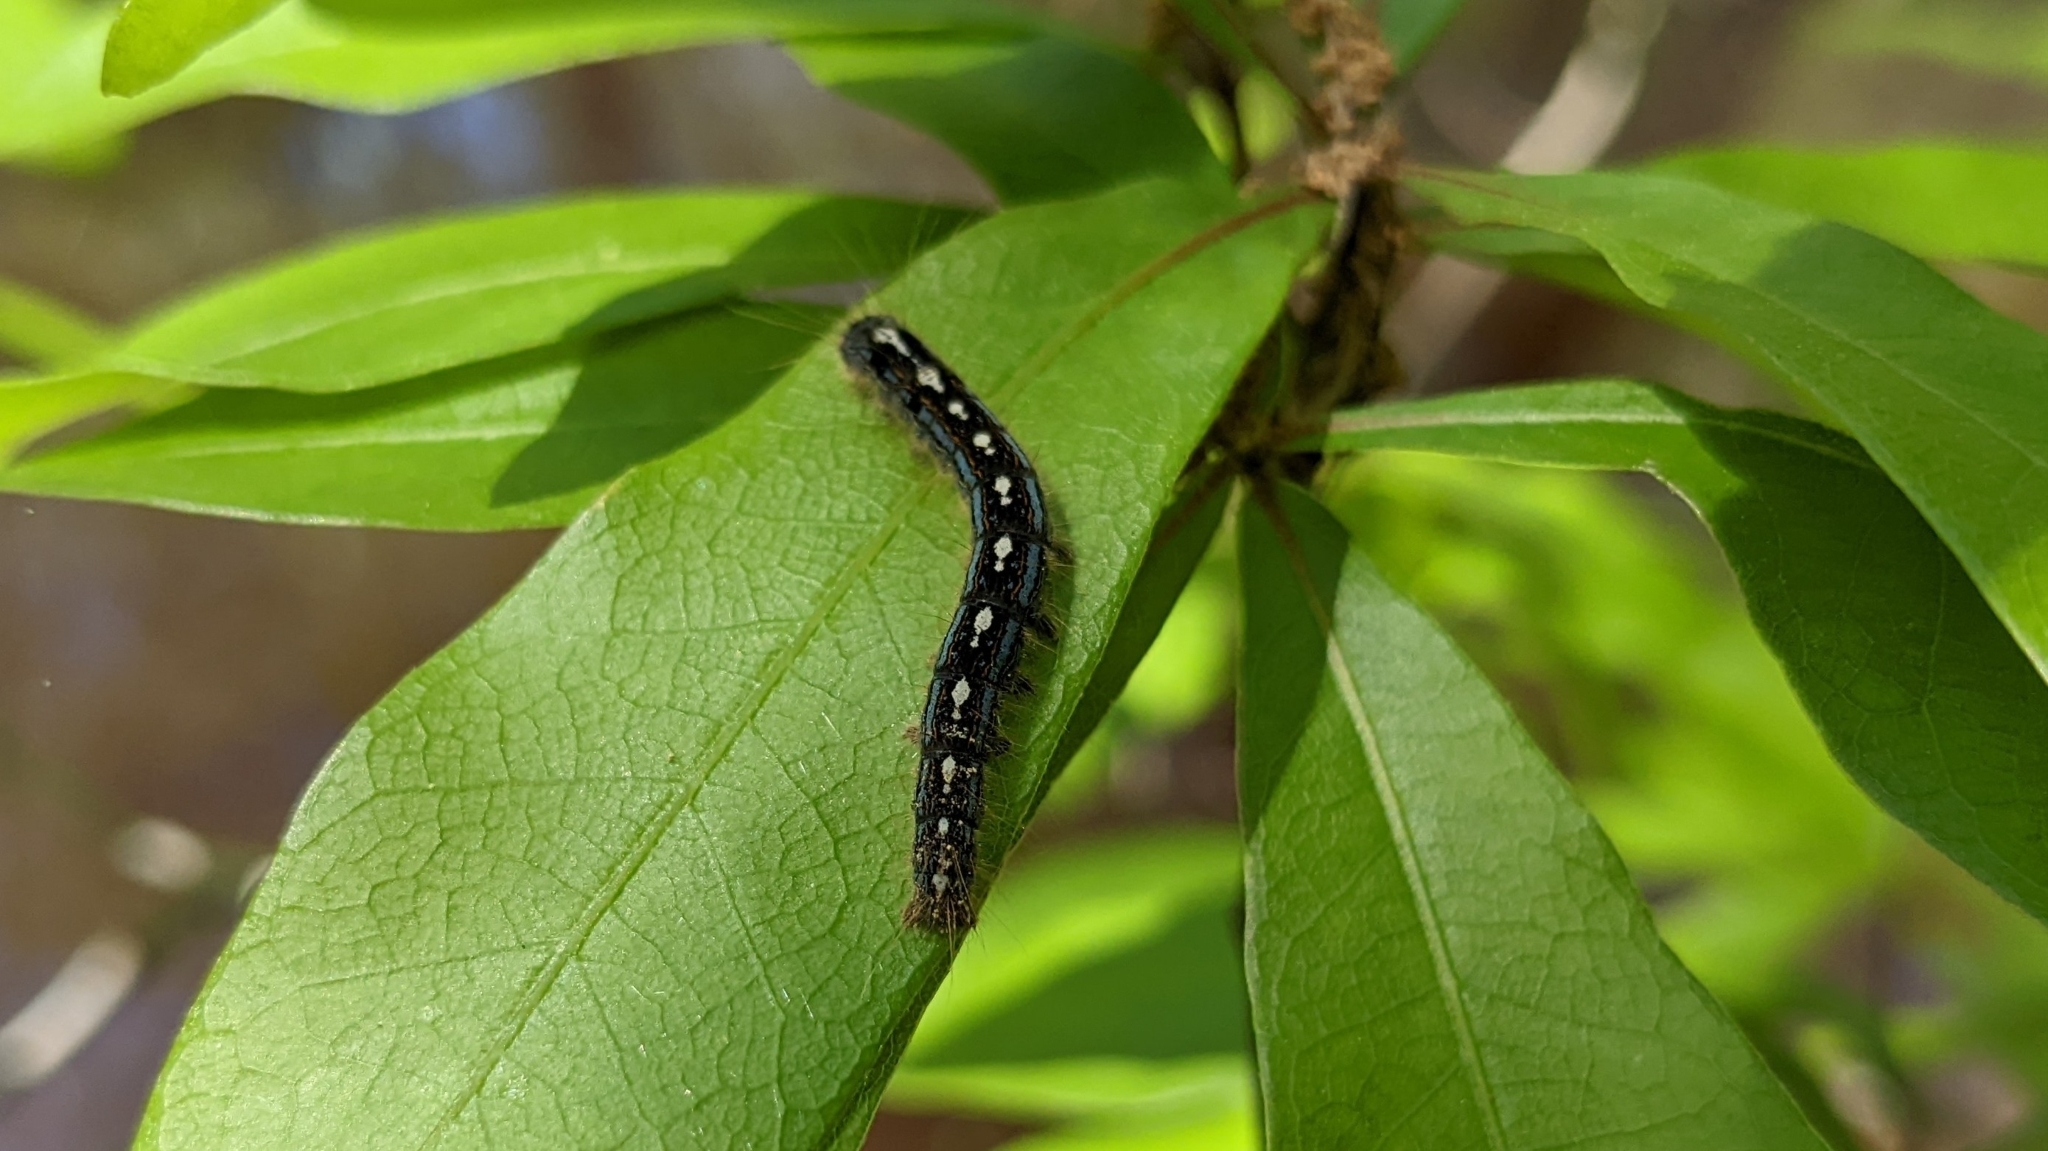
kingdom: Animalia
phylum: Arthropoda
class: Insecta
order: Lepidoptera
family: Lasiocampidae
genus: Malacosoma
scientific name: Malacosoma disstria
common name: Forest tent caterpillar
